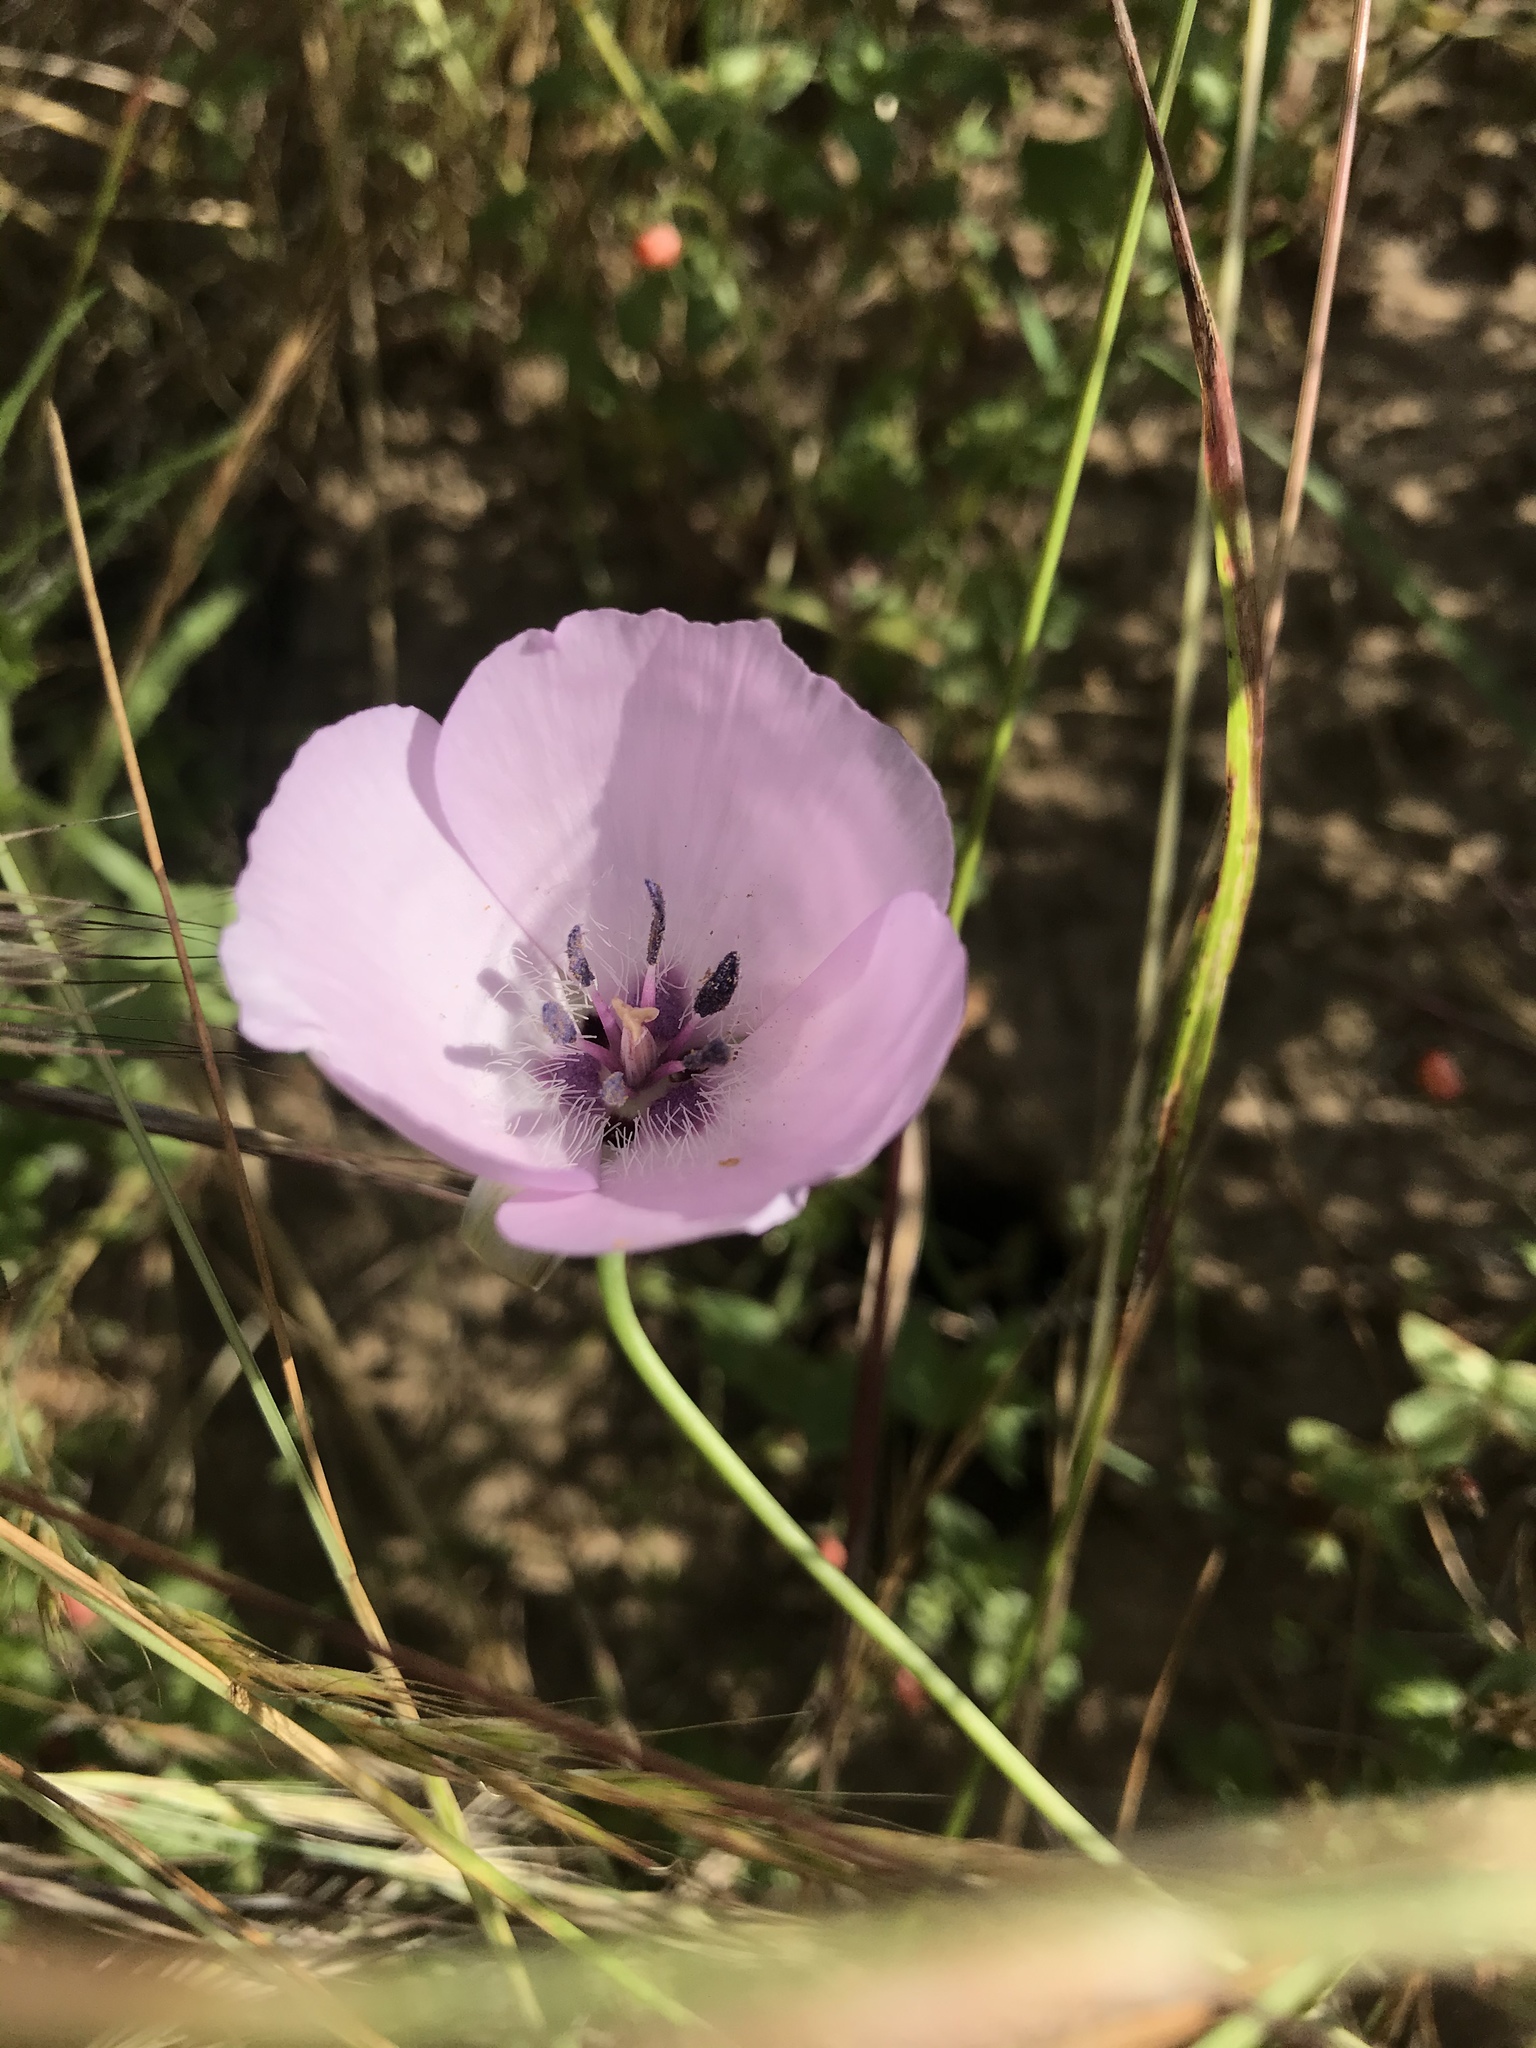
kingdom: Plantae
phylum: Tracheophyta
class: Liliopsida
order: Liliales
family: Liliaceae
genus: Calochortus
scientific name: Calochortus splendens
